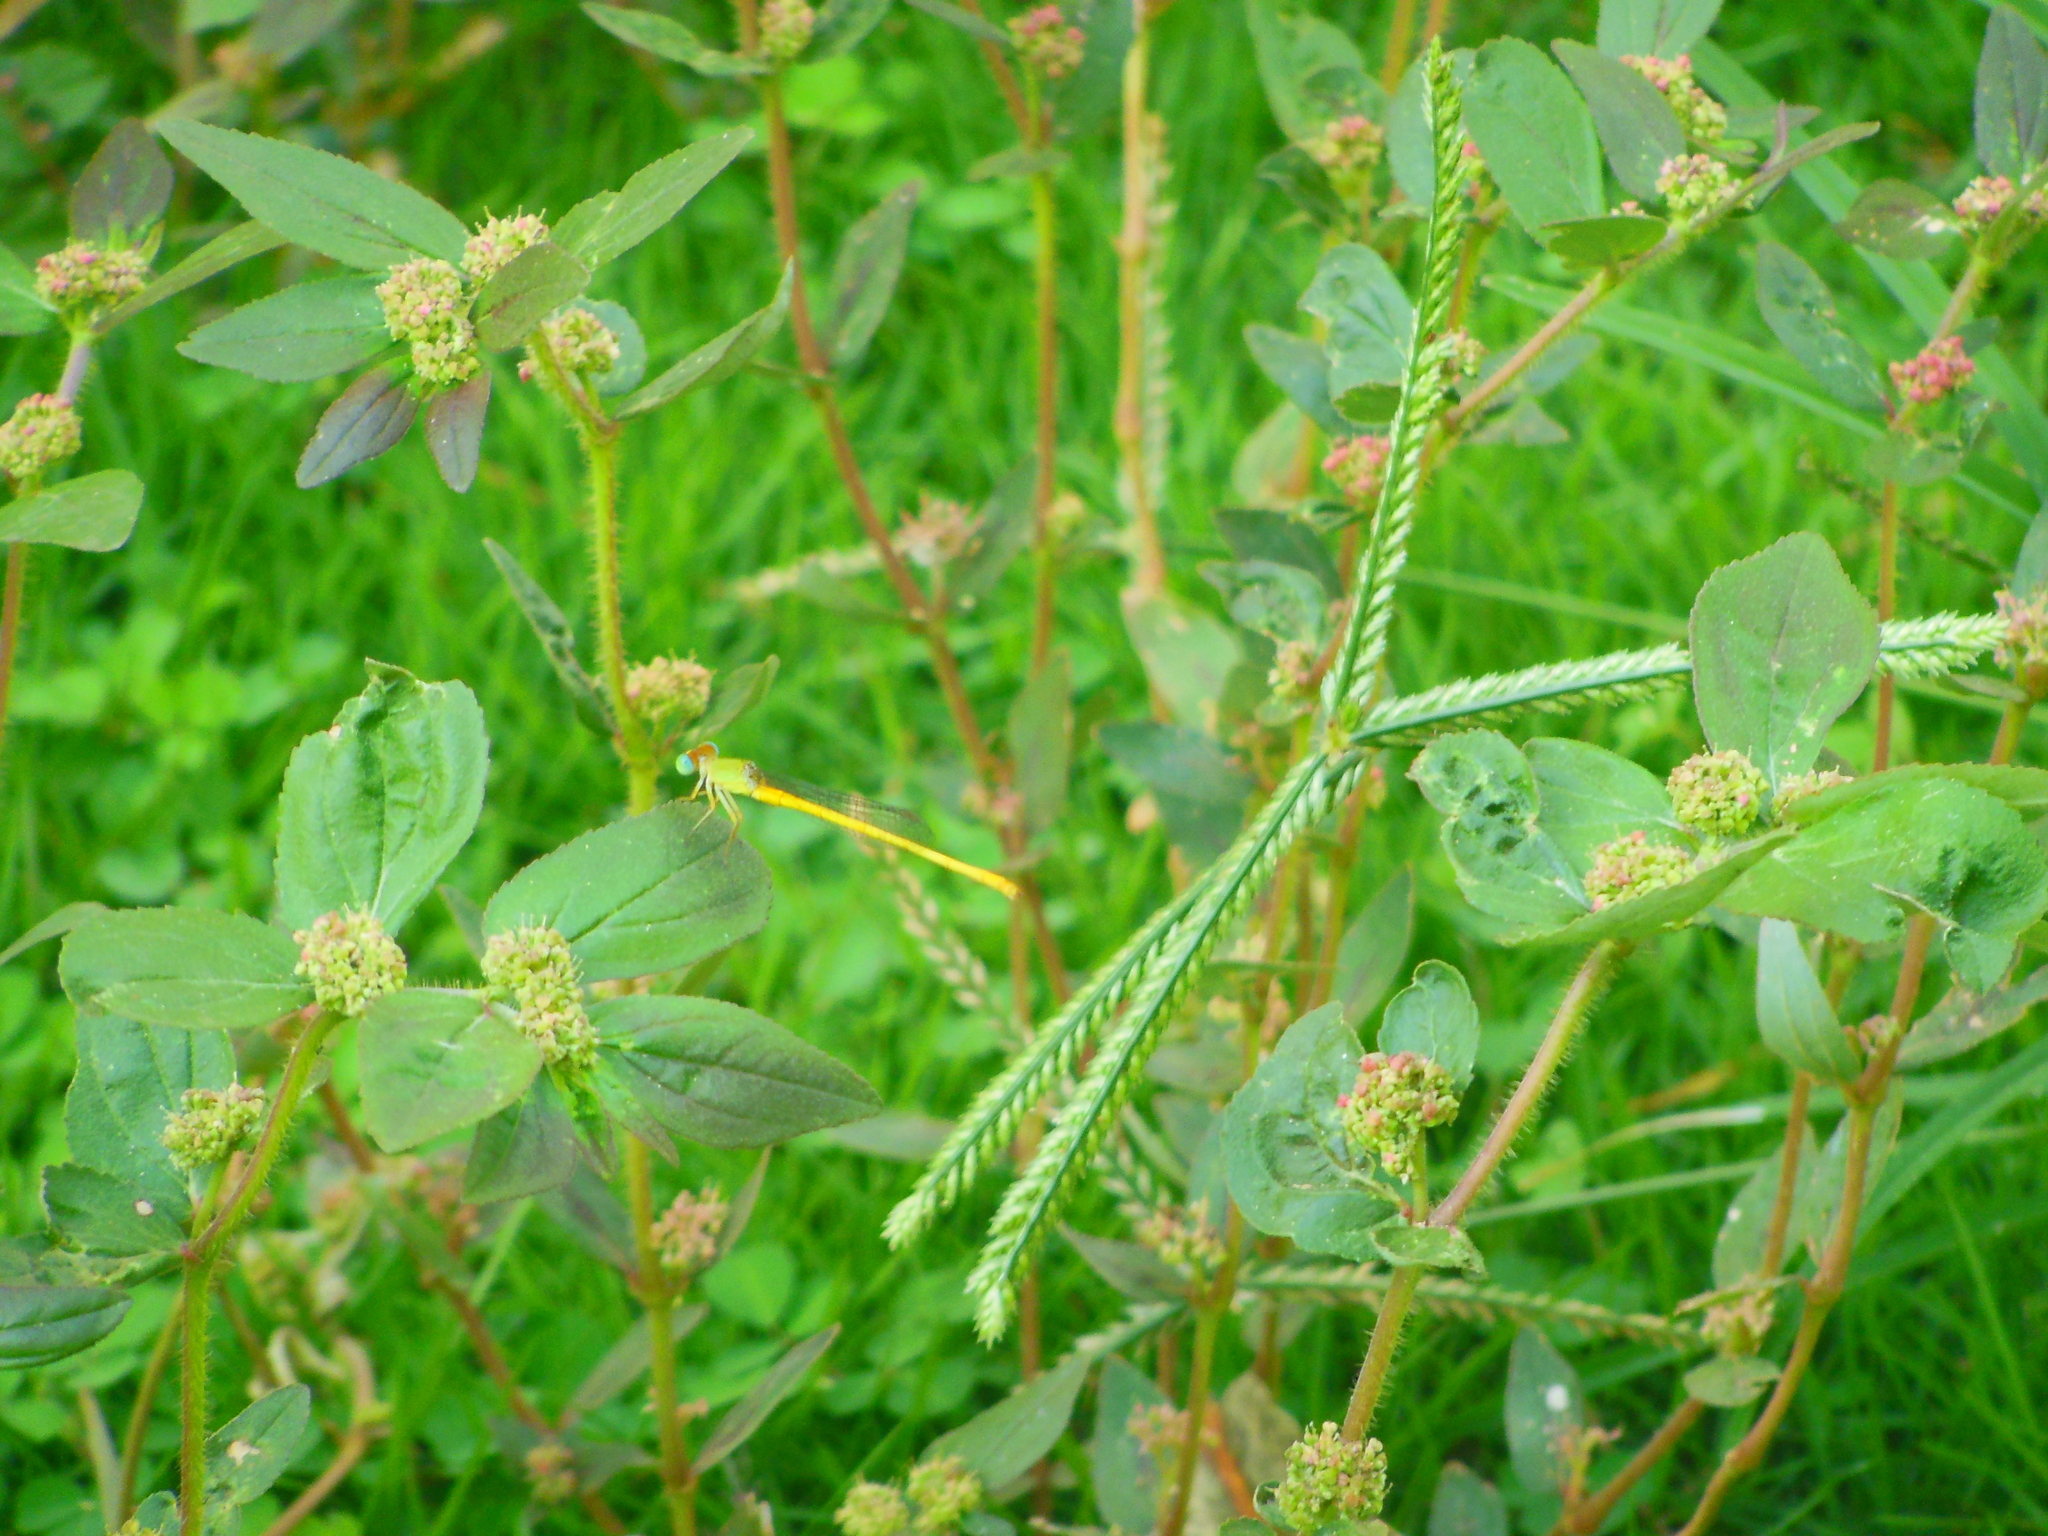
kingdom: Animalia
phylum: Arthropoda
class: Insecta
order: Odonata
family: Coenagrionidae
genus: Ceriagrion
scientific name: Ceriagrion coromandelianum
